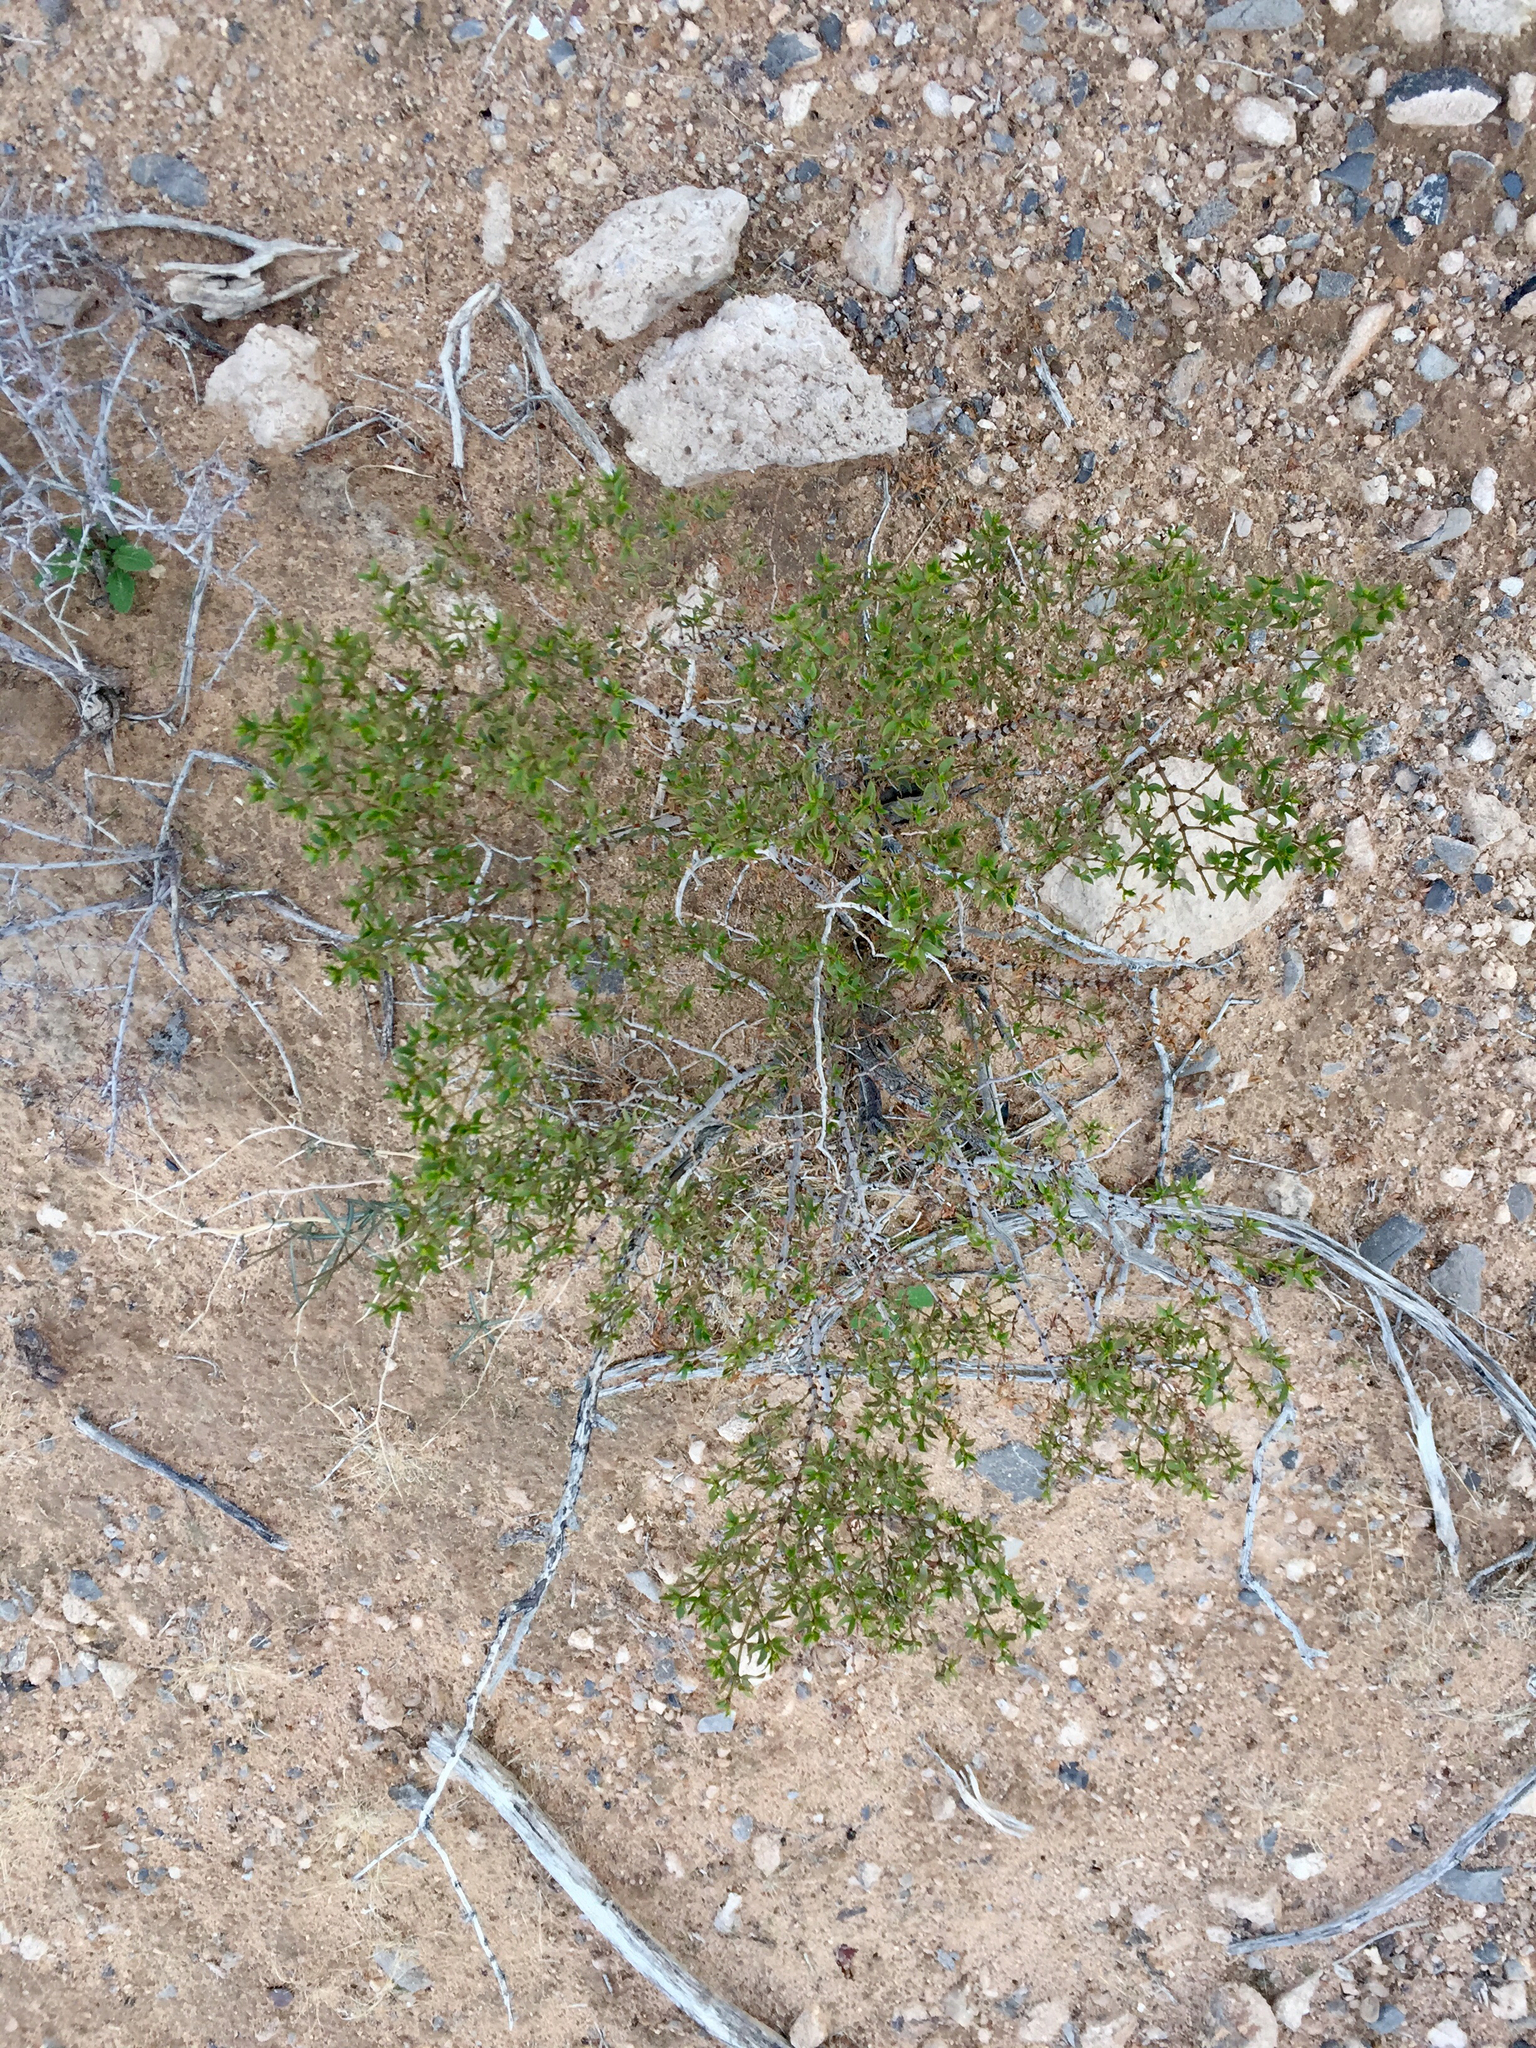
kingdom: Plantae
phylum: Tracheophyta
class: Magnoliopsida
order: Zygophyllales
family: Zygophyllaceae
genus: Larrea
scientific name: Larrea tridentata
